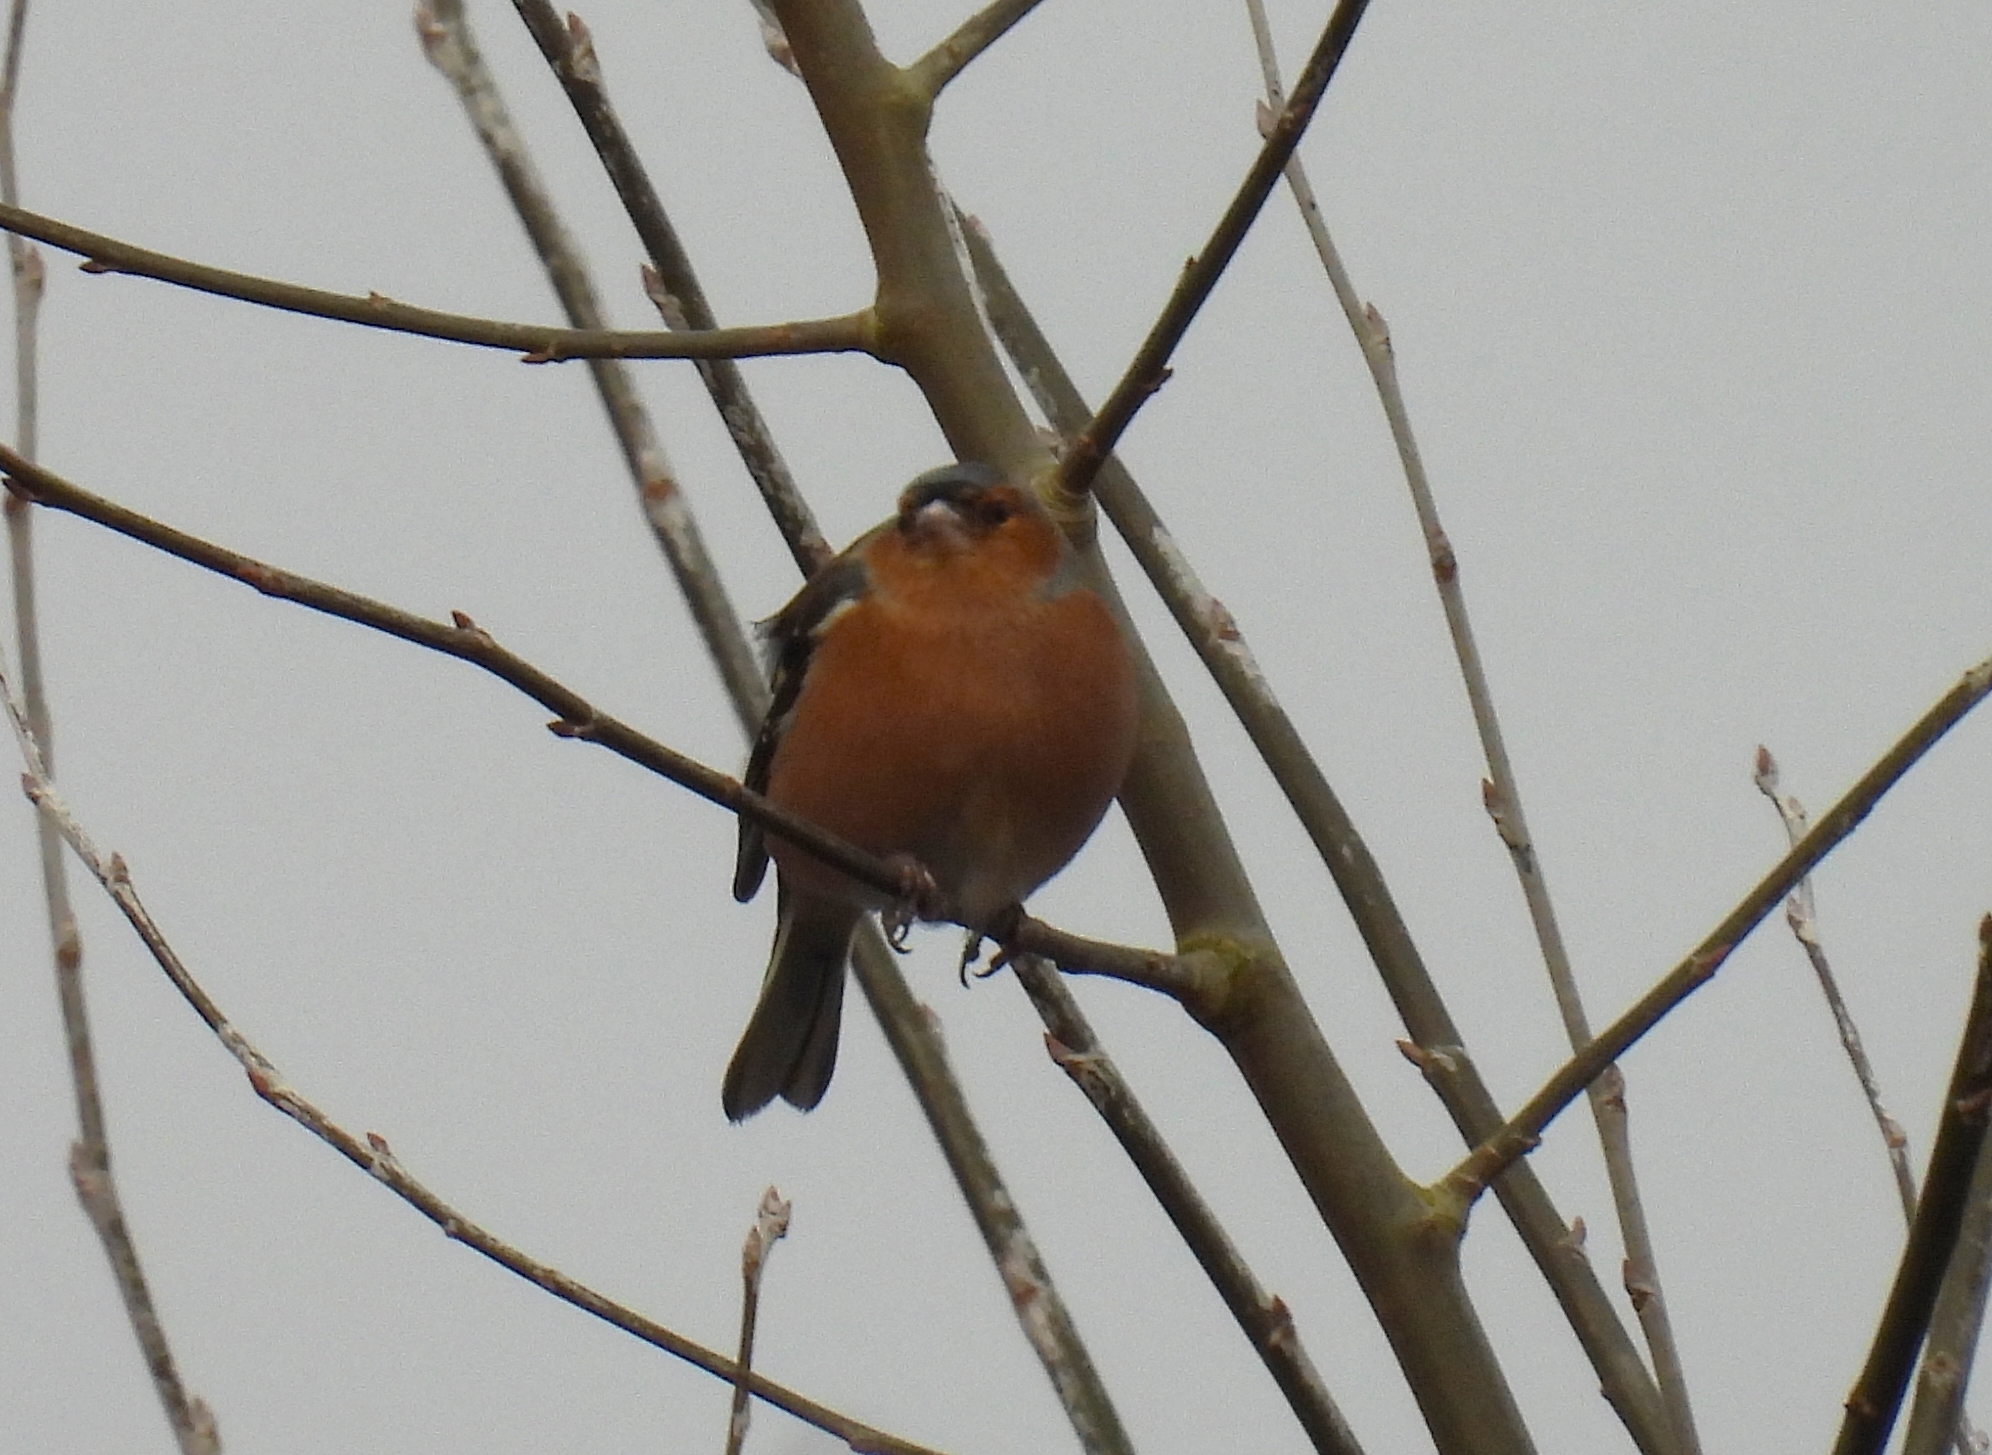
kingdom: Animalia
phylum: Chordata
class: Aves
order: Passeriformes
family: Fringillidae
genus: Fringilla
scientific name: Fringilla coelebs
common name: Common chaffinch
